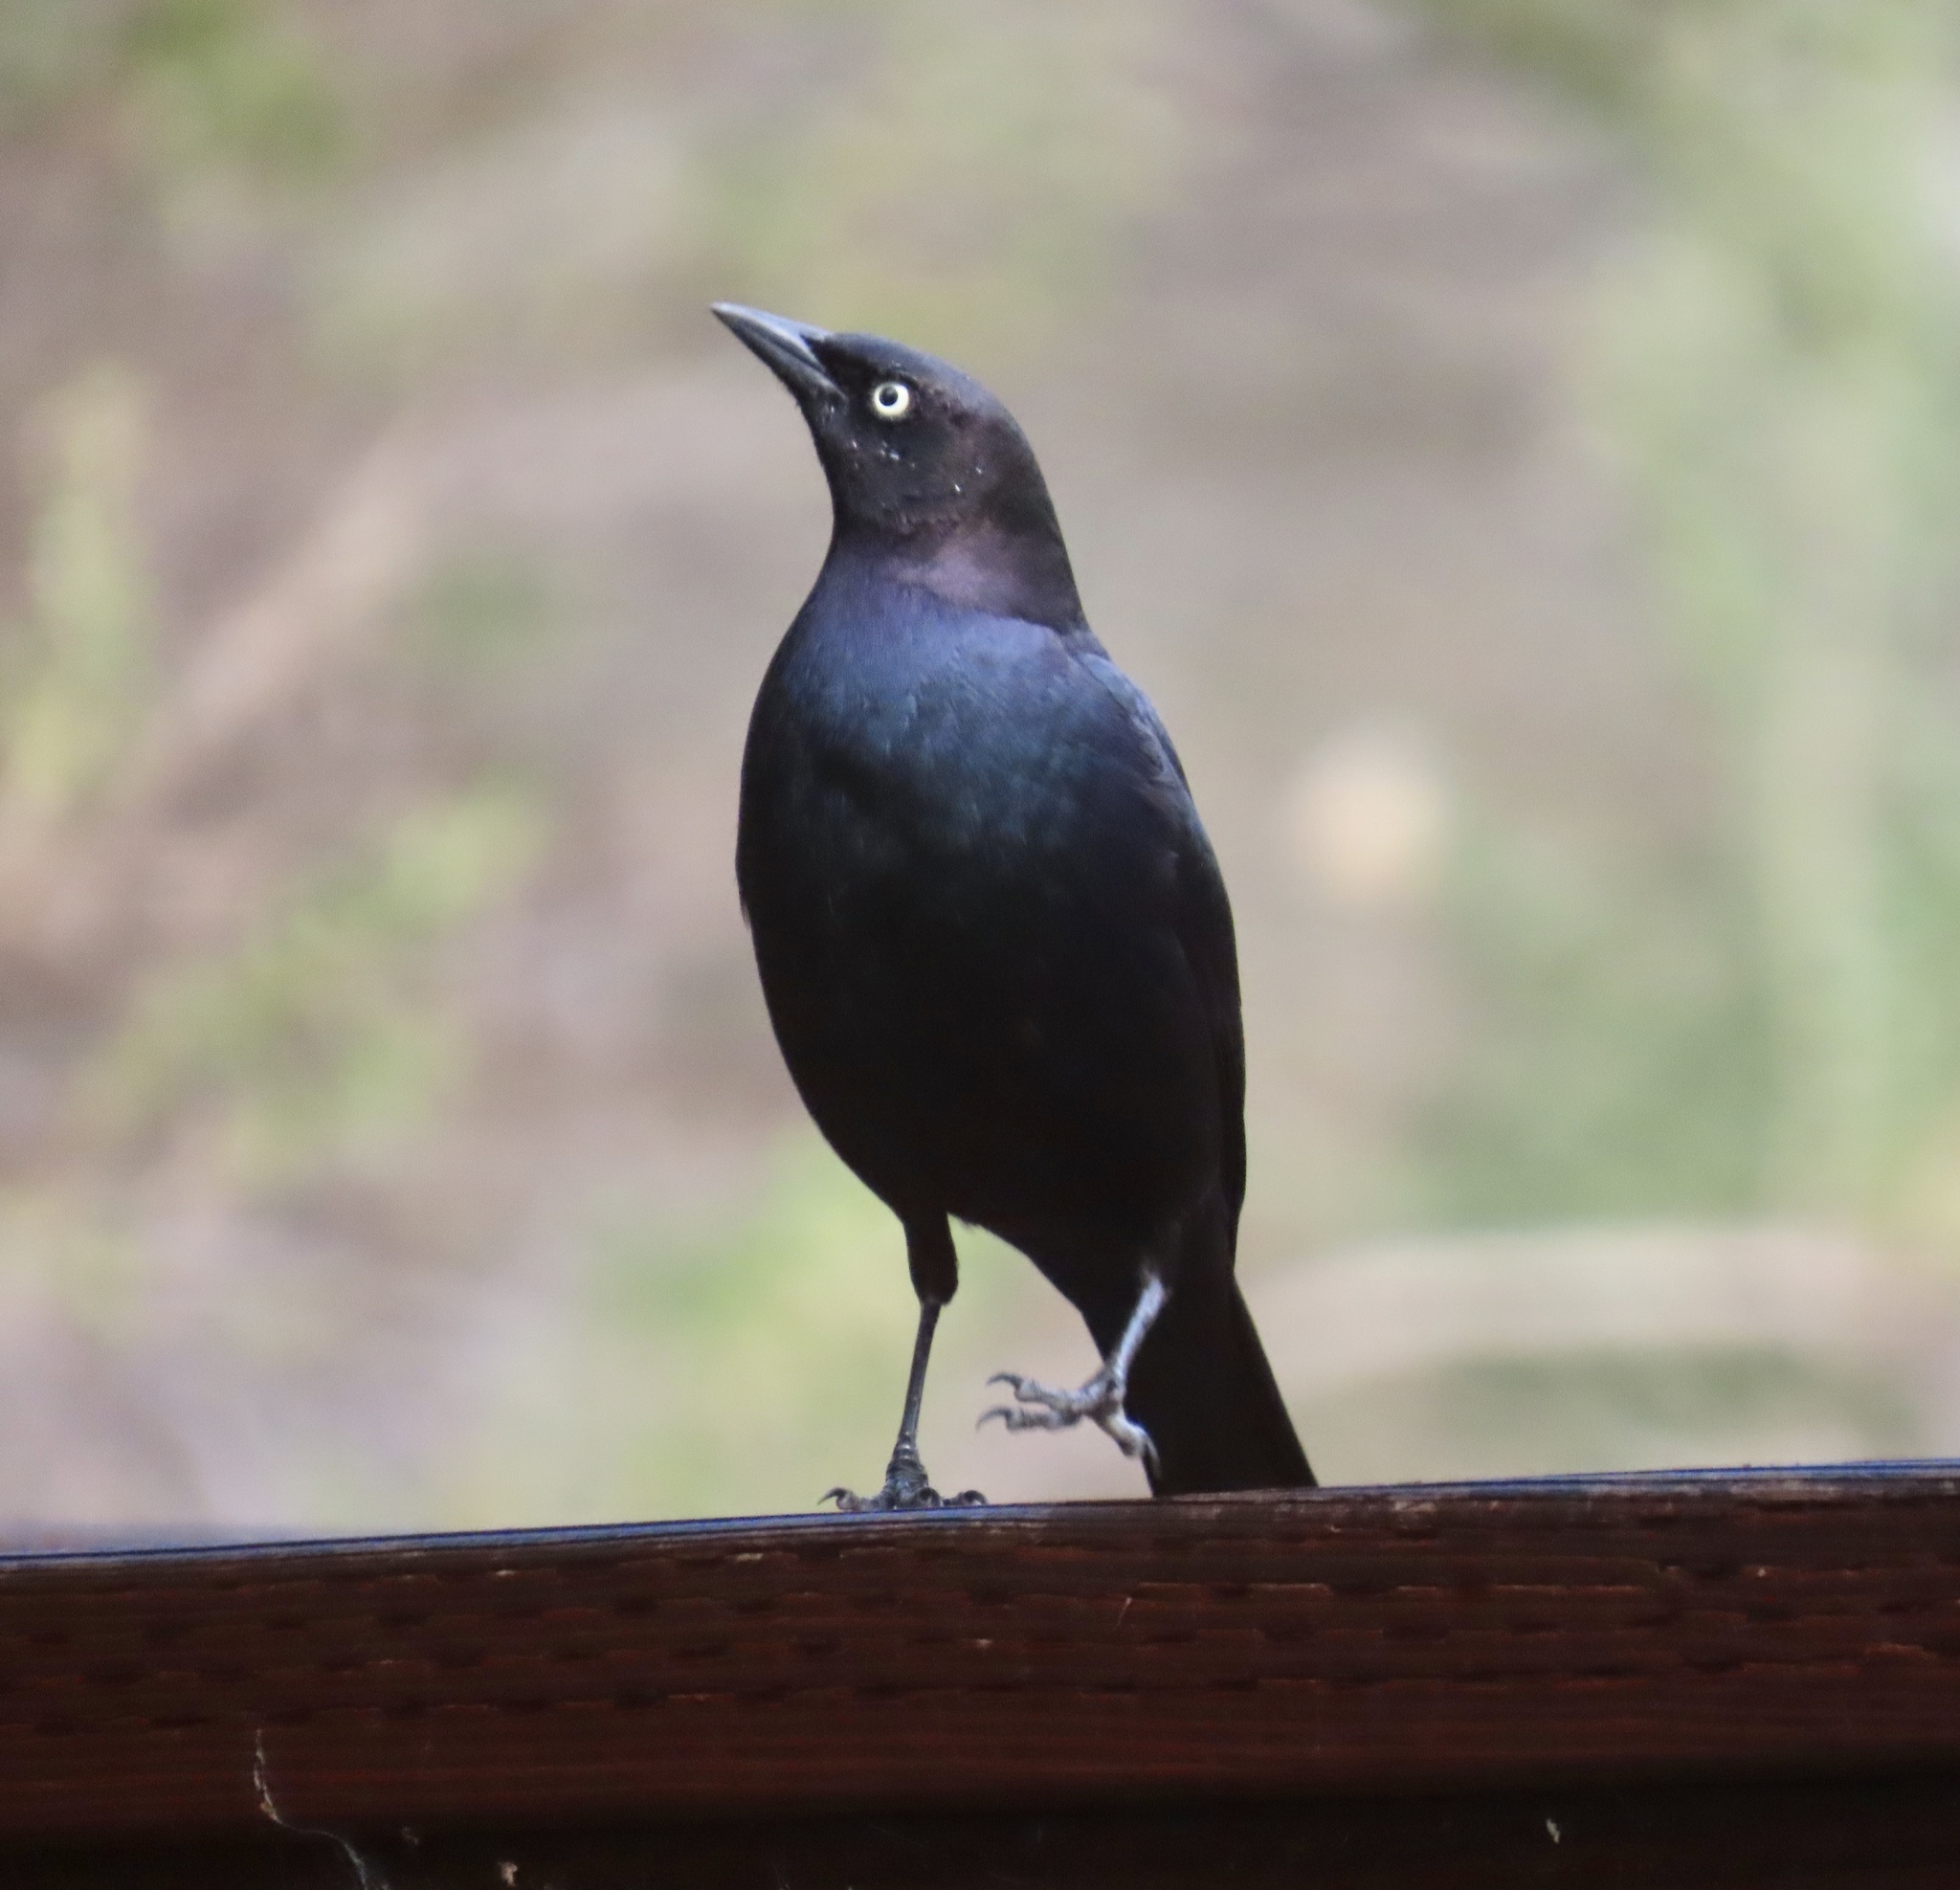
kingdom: Animalia
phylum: Chordata
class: Aves
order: Passeriformes
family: Icteridae
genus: Euphagus
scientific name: Euphagus cyanocephalus
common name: Brewer's blackbird
